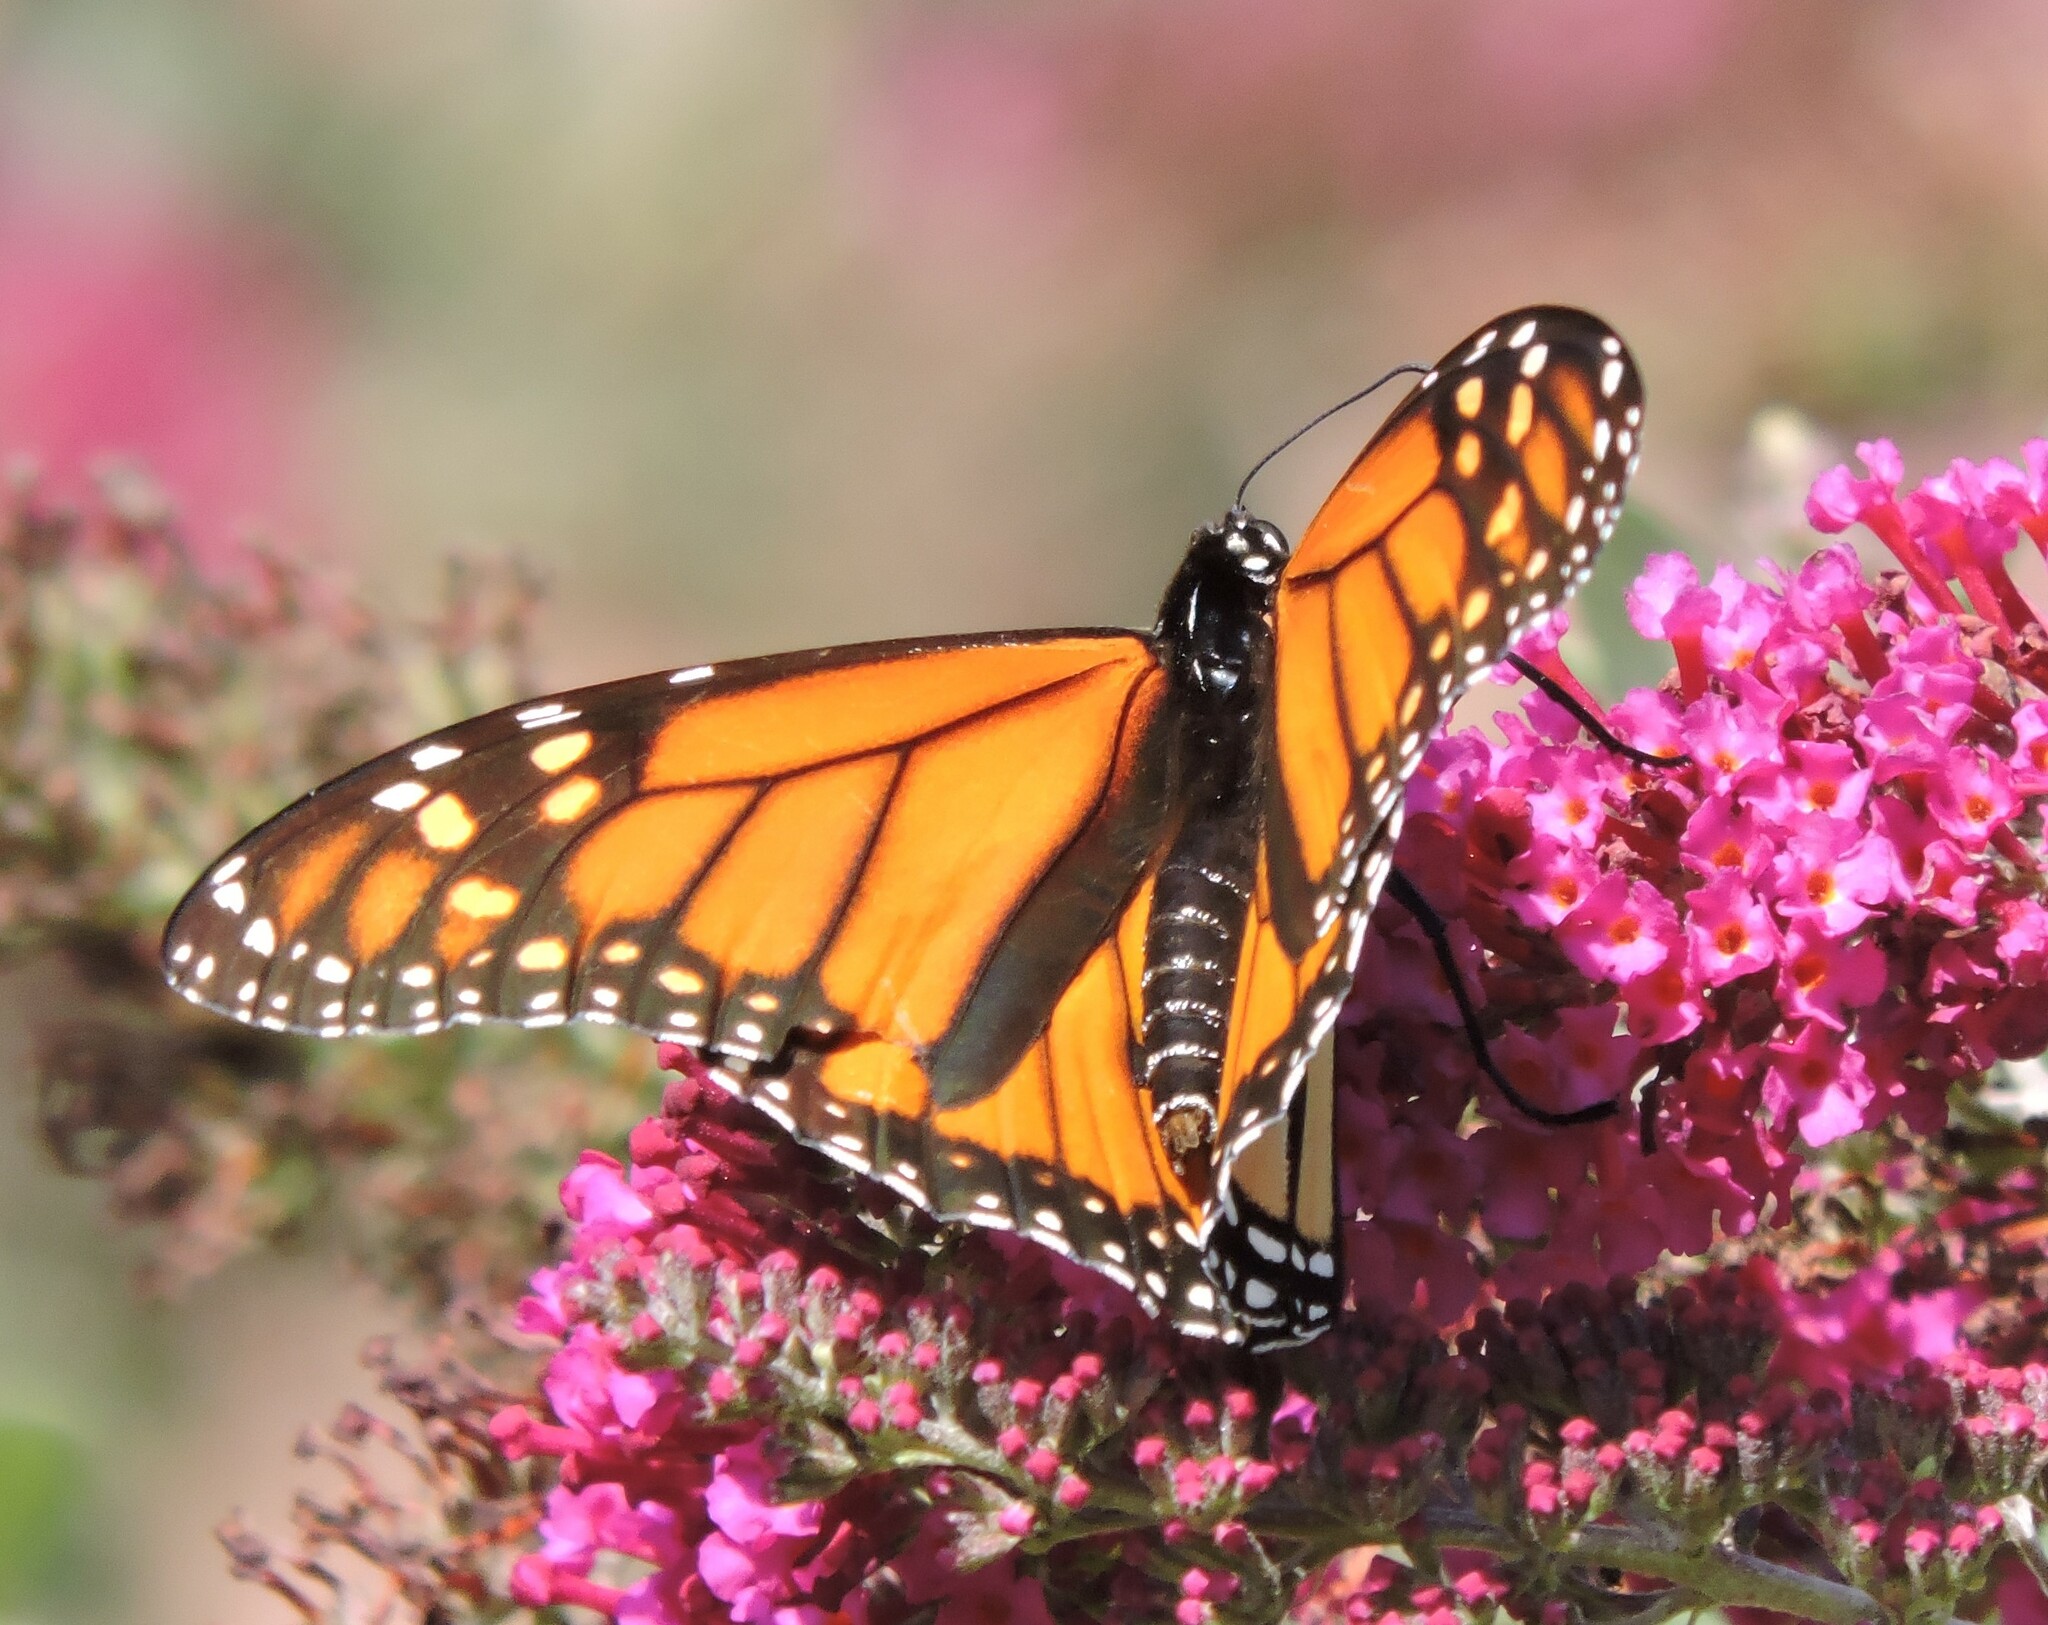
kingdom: Animalia
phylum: Arthropoda
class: Insecta
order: Lepidoptera
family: Nymphalidae
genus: Danaus
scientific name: Danaus plexippus
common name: Monarch
